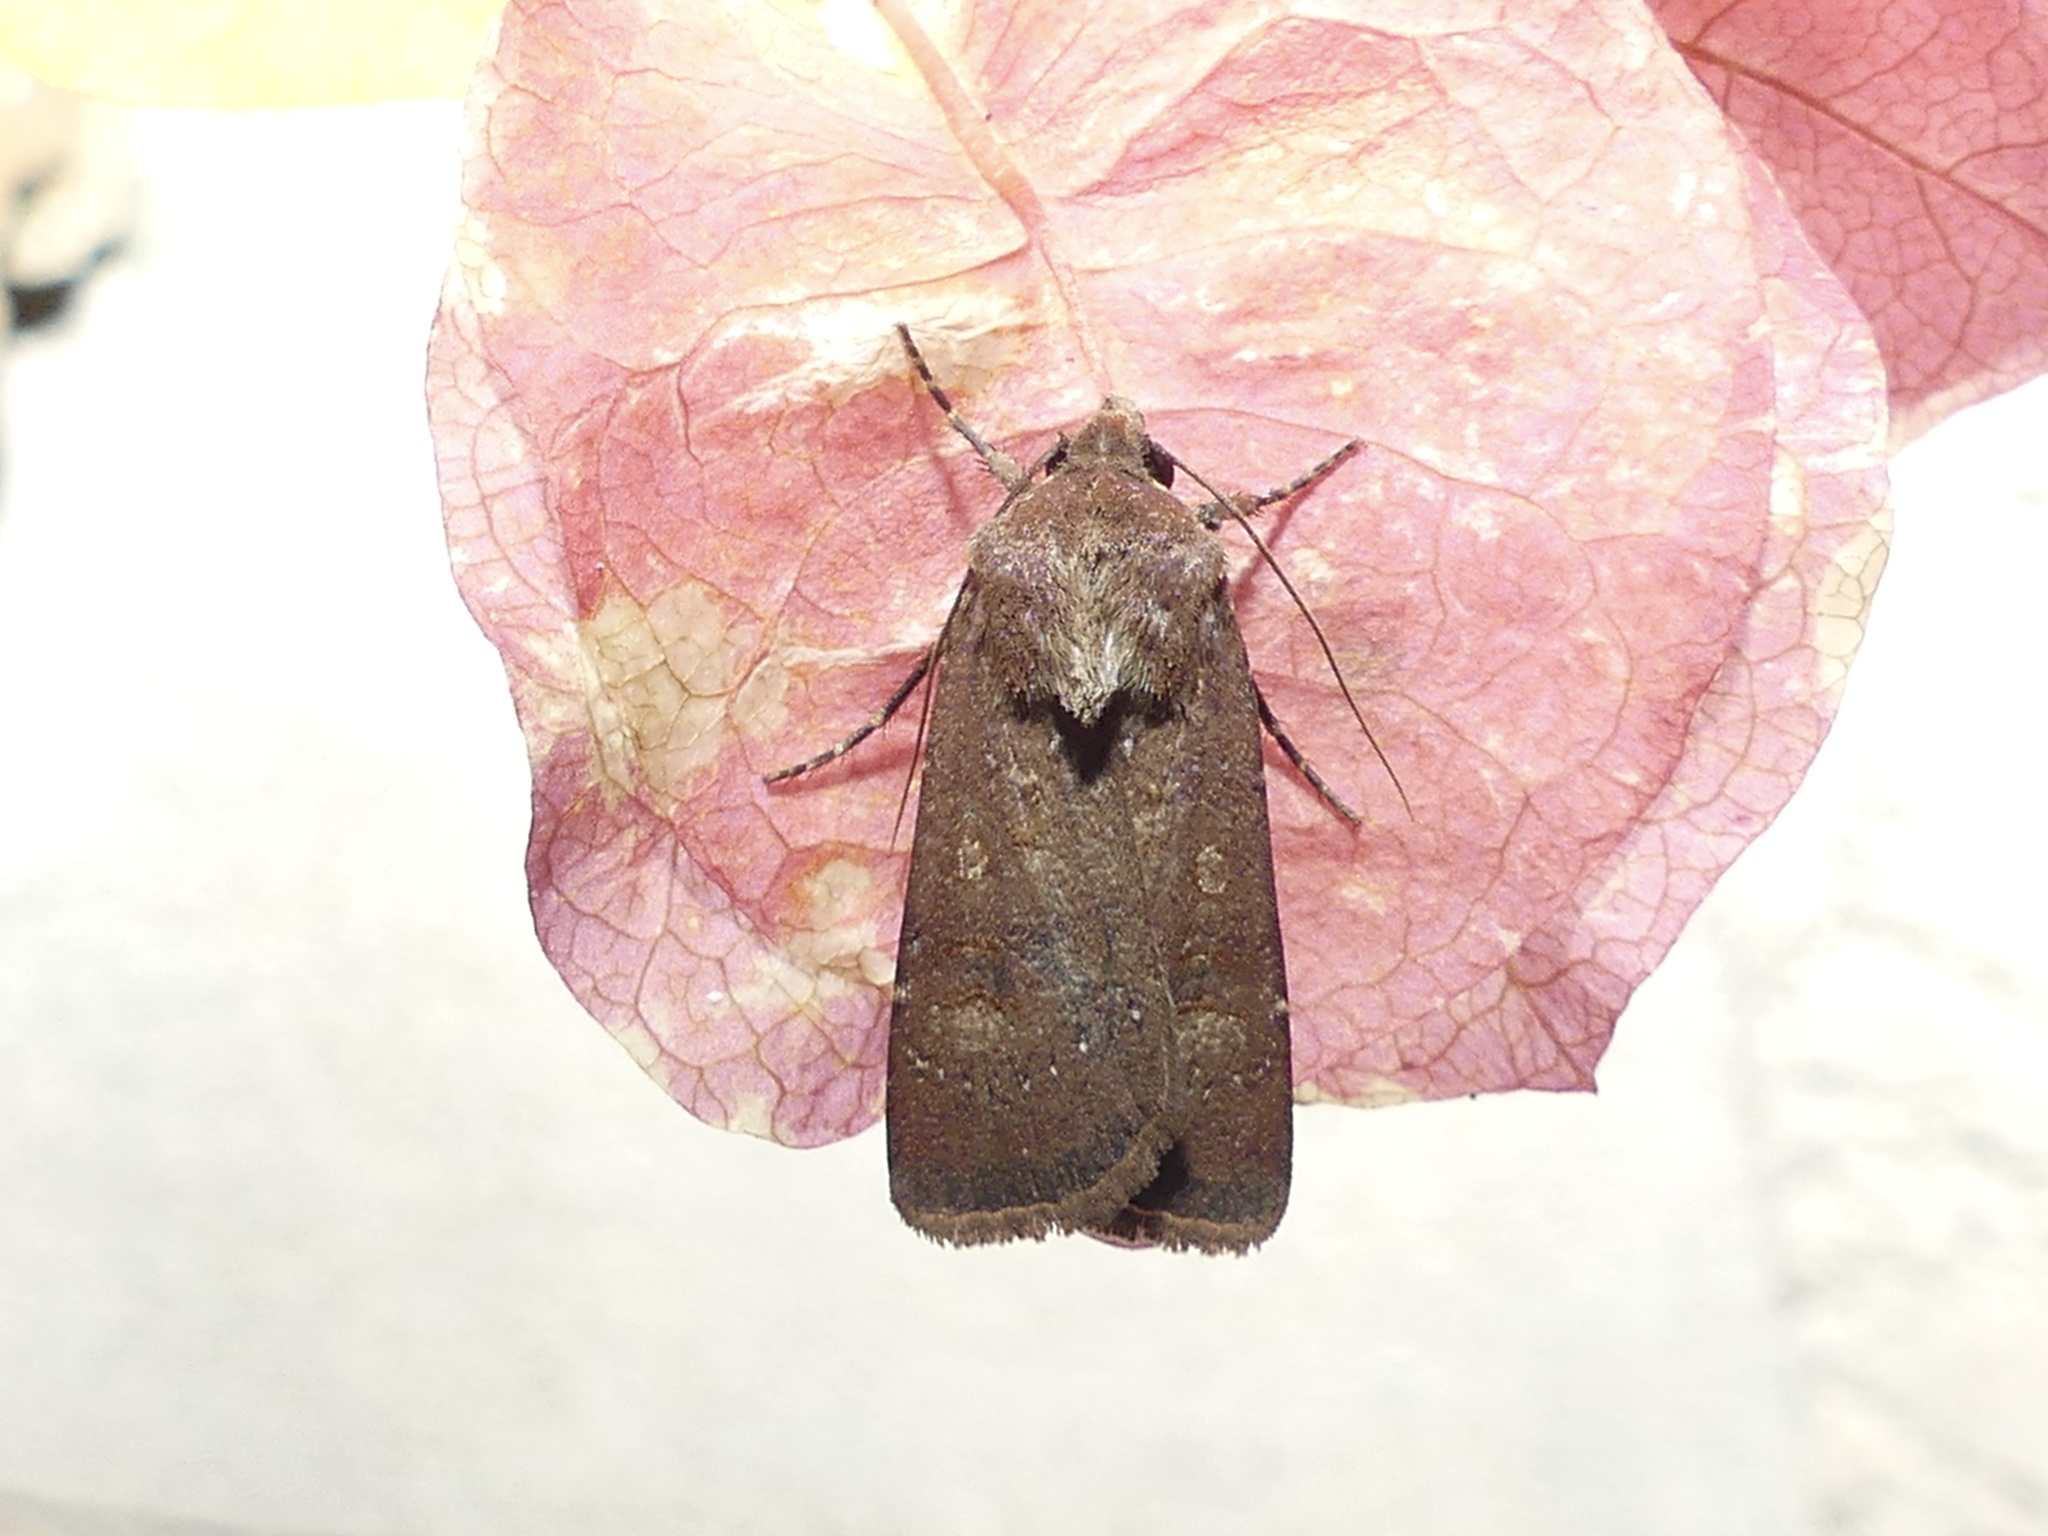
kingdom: Animalia
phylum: Arthropoda
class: Insecta
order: Lepidoptera
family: Noctuidae
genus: Agrotis
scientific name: Agrotis trux
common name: Crescent dart
